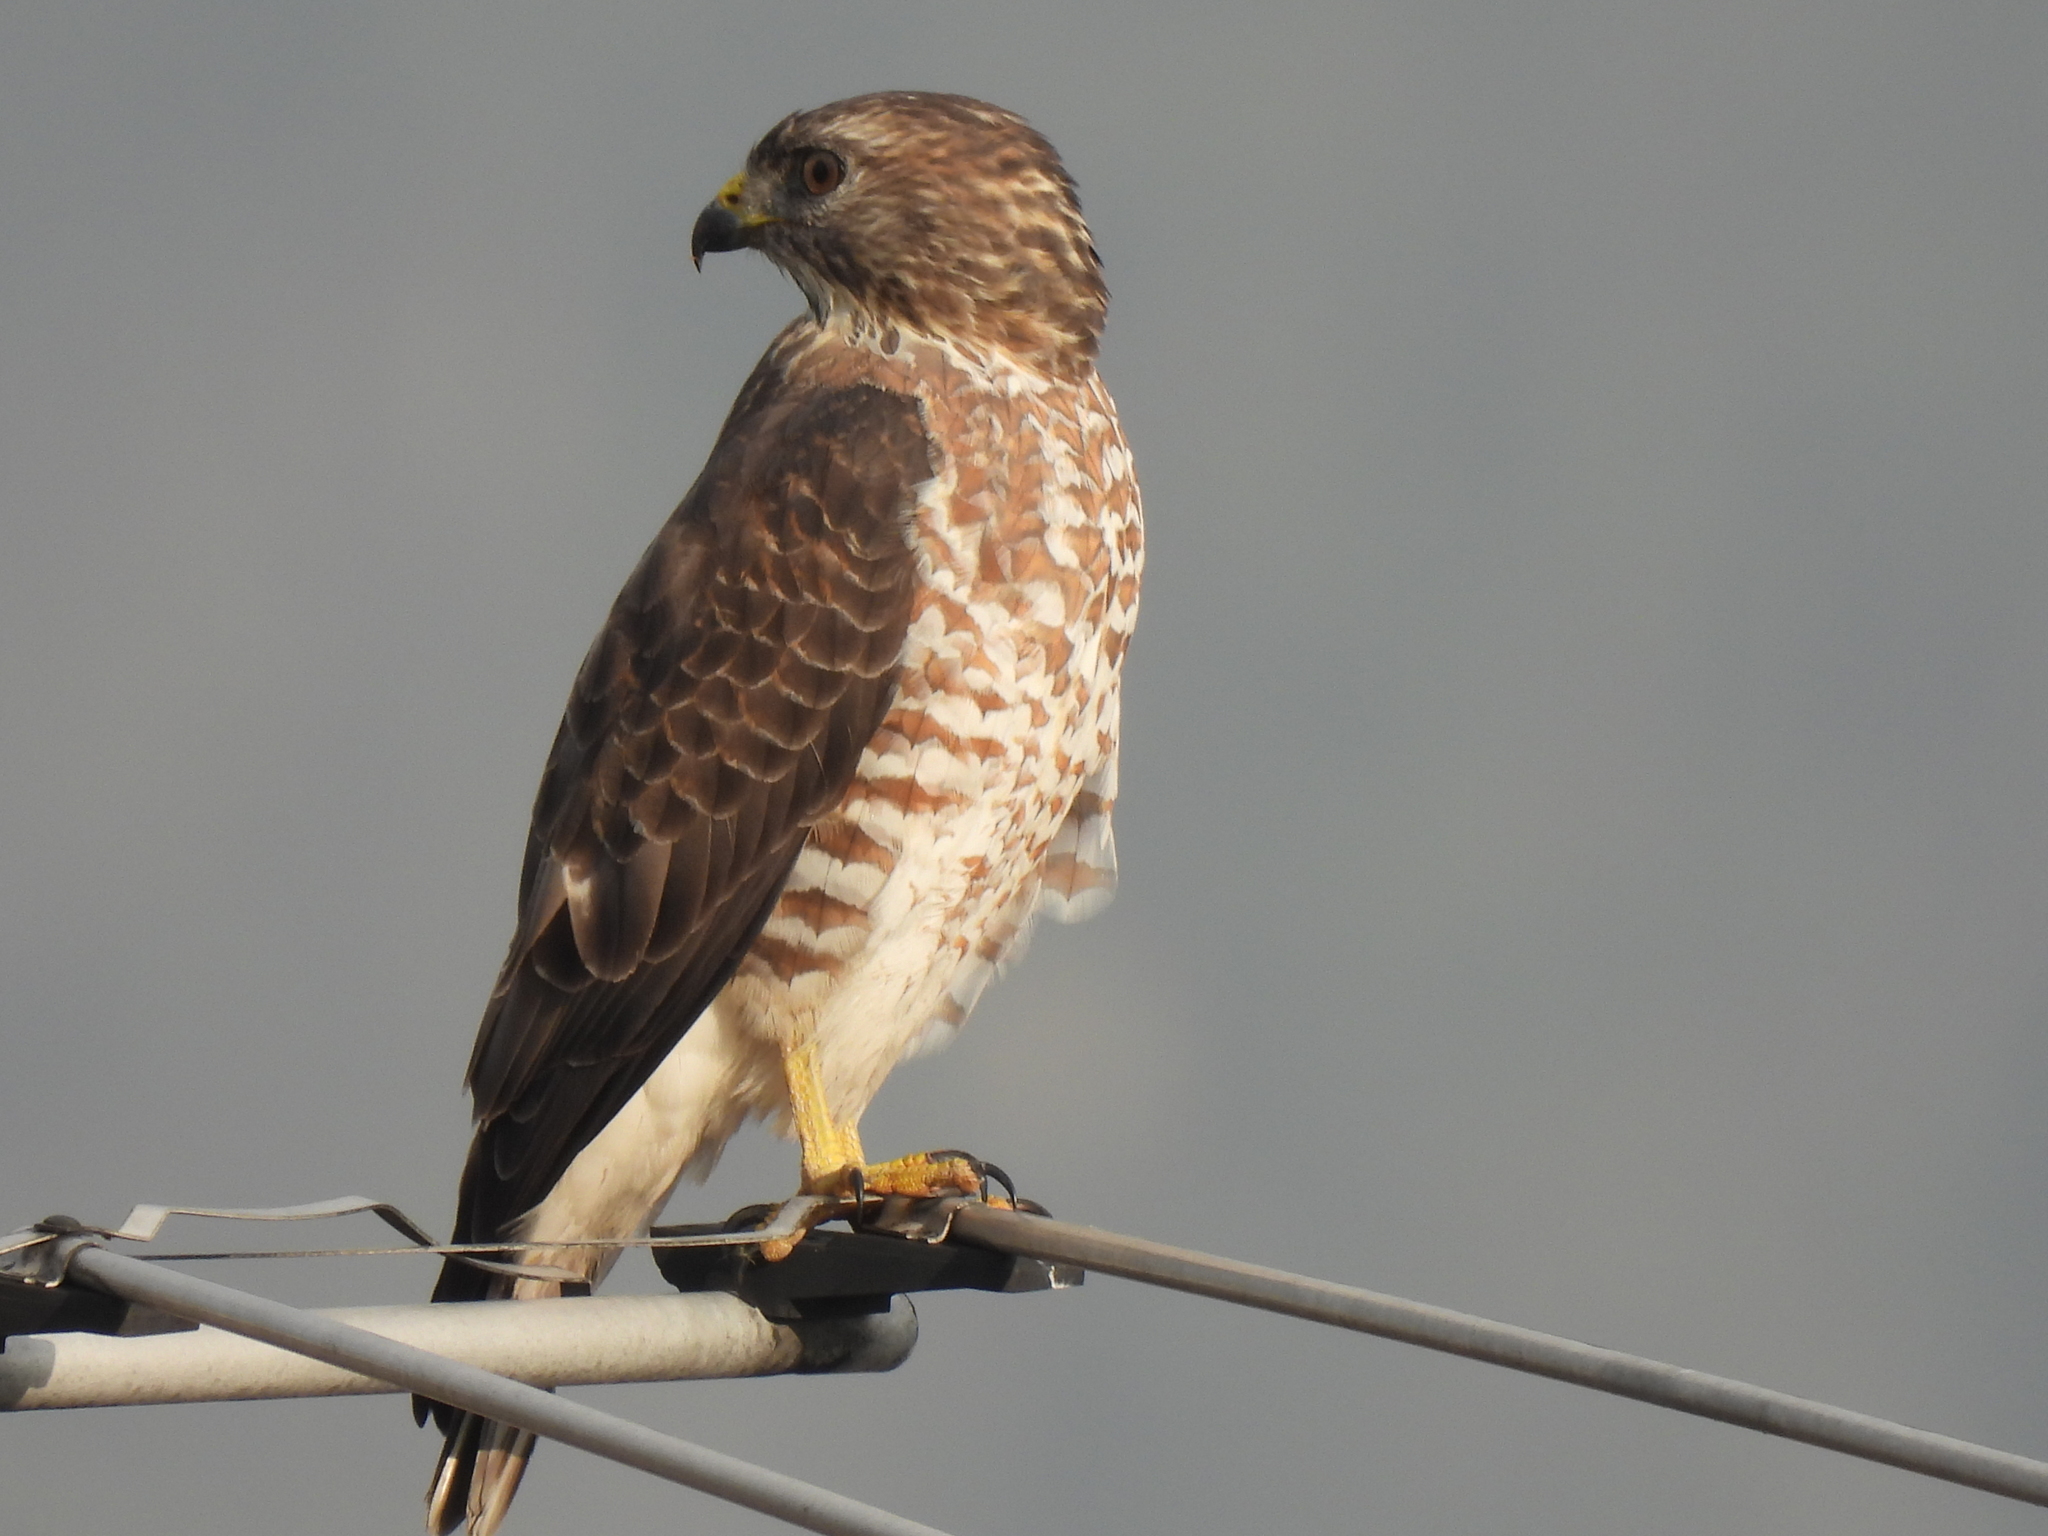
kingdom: Animalia
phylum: Chordata
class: Aves
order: Accipitriformes
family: Accipitridae
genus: Buteo
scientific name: Buteo platypterus
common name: Broad-winged hawk
